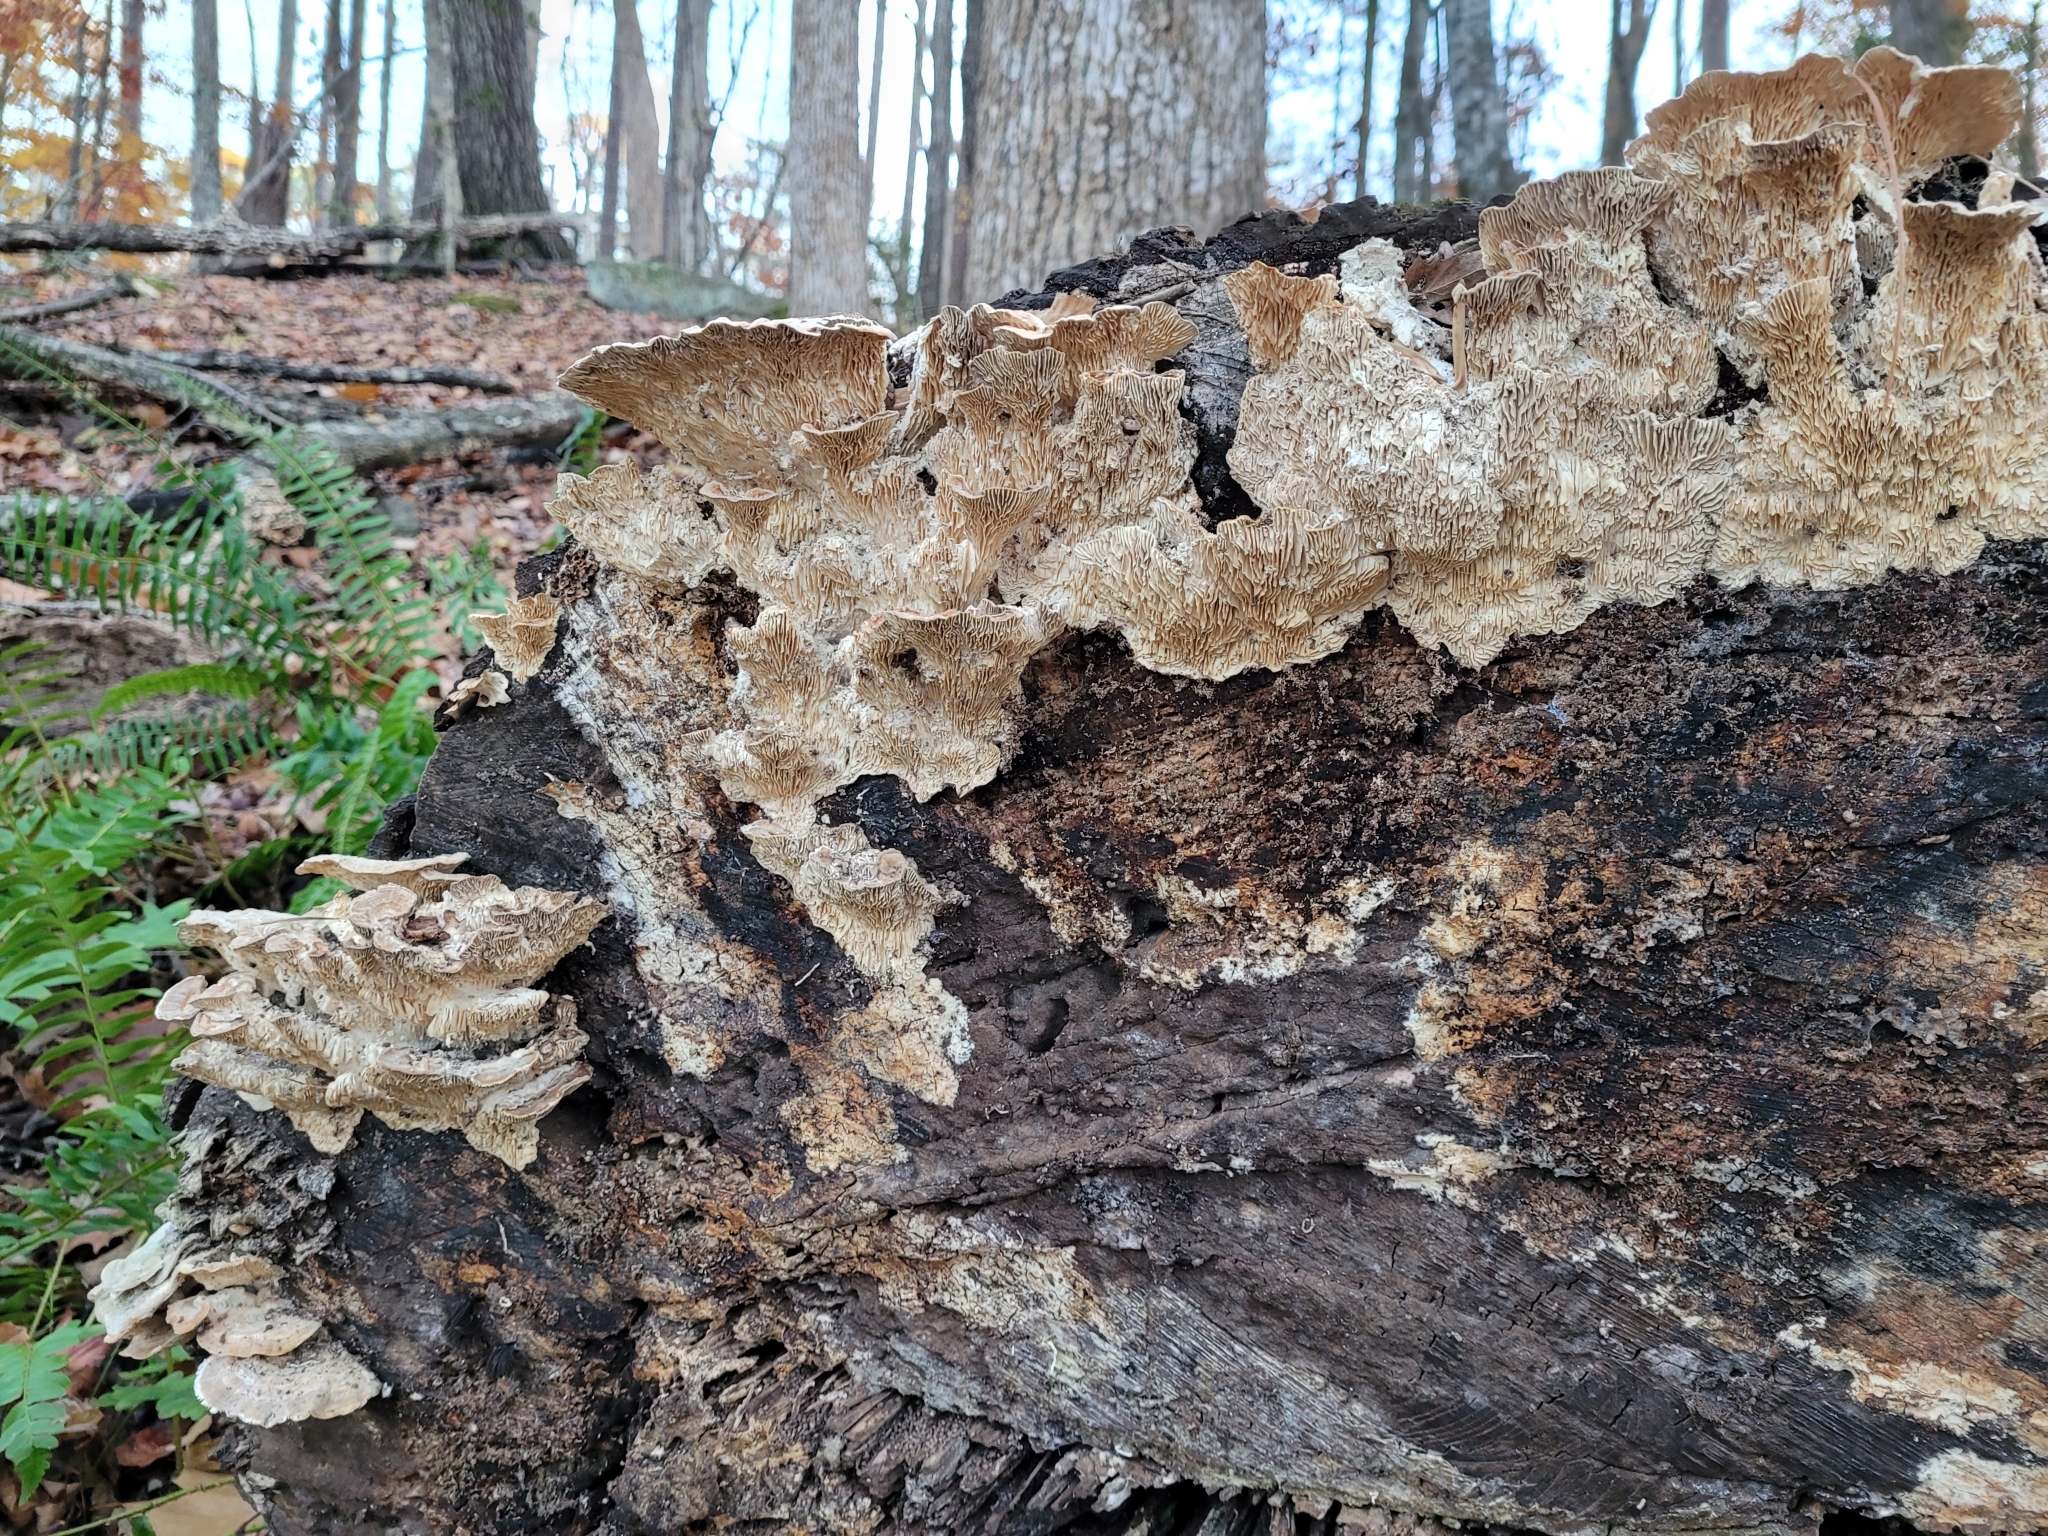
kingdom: Fungi
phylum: Basidiomycota
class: Agaricomycetes
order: Polyporales
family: Polyporaceae
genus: Lenzites
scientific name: Lenzites betulinus
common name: Birch mazegill
